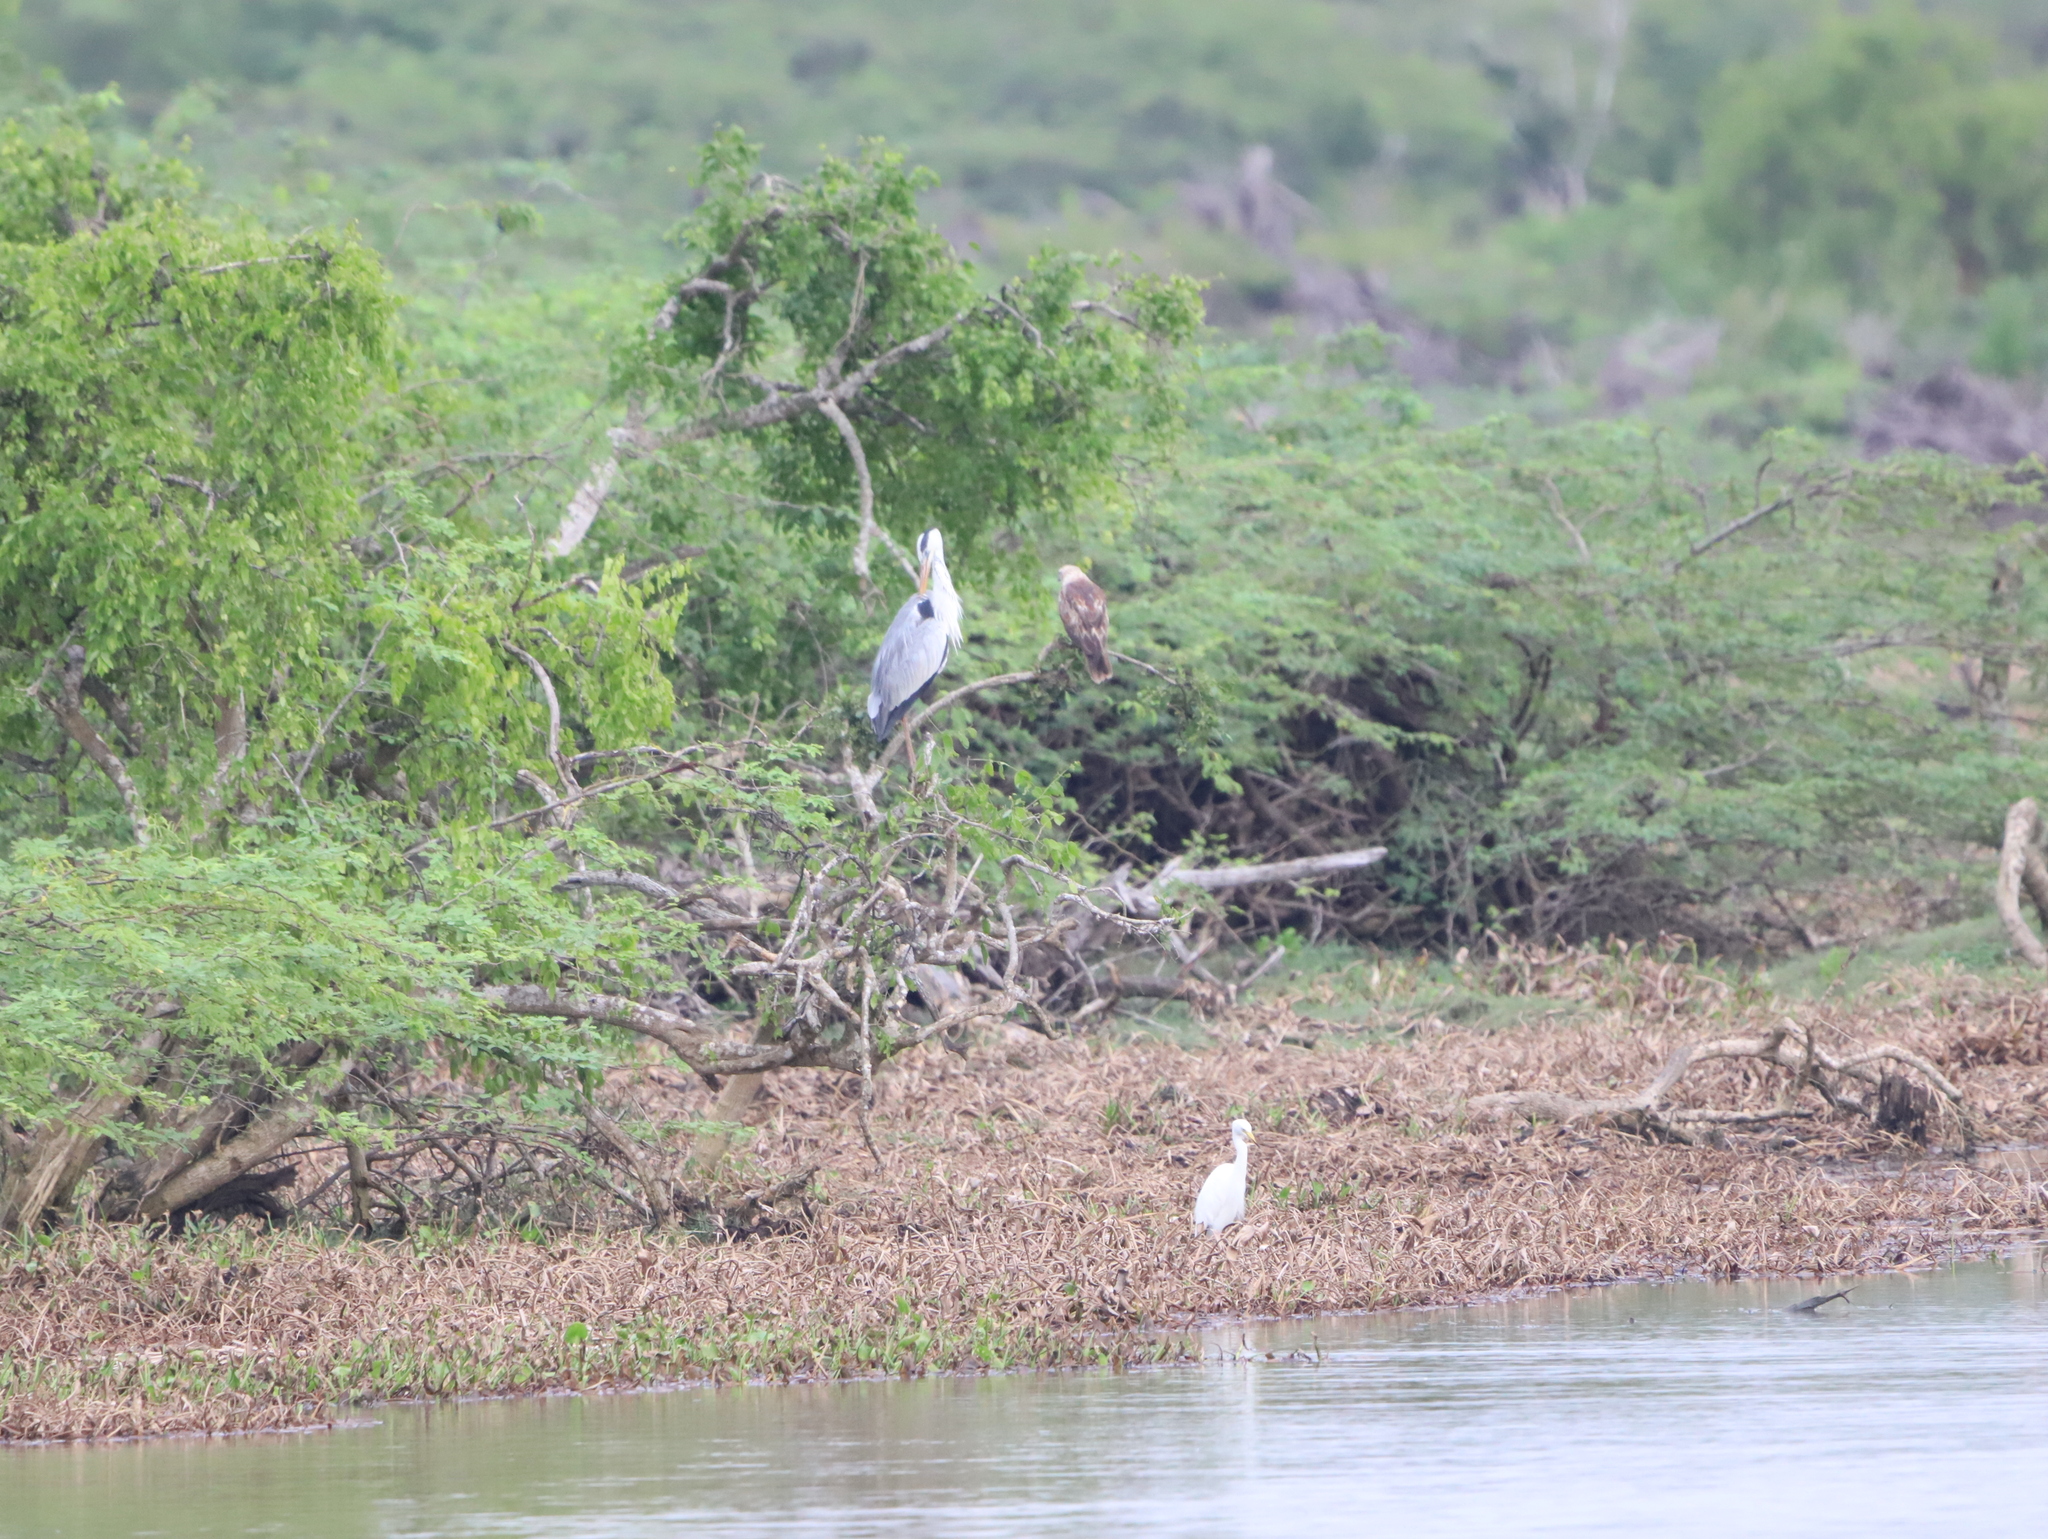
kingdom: Animalia
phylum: Chordata
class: Aves
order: Accipitriformes
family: Accipitridae
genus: Haliastur
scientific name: Haliastur indus
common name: Brahminy kite
